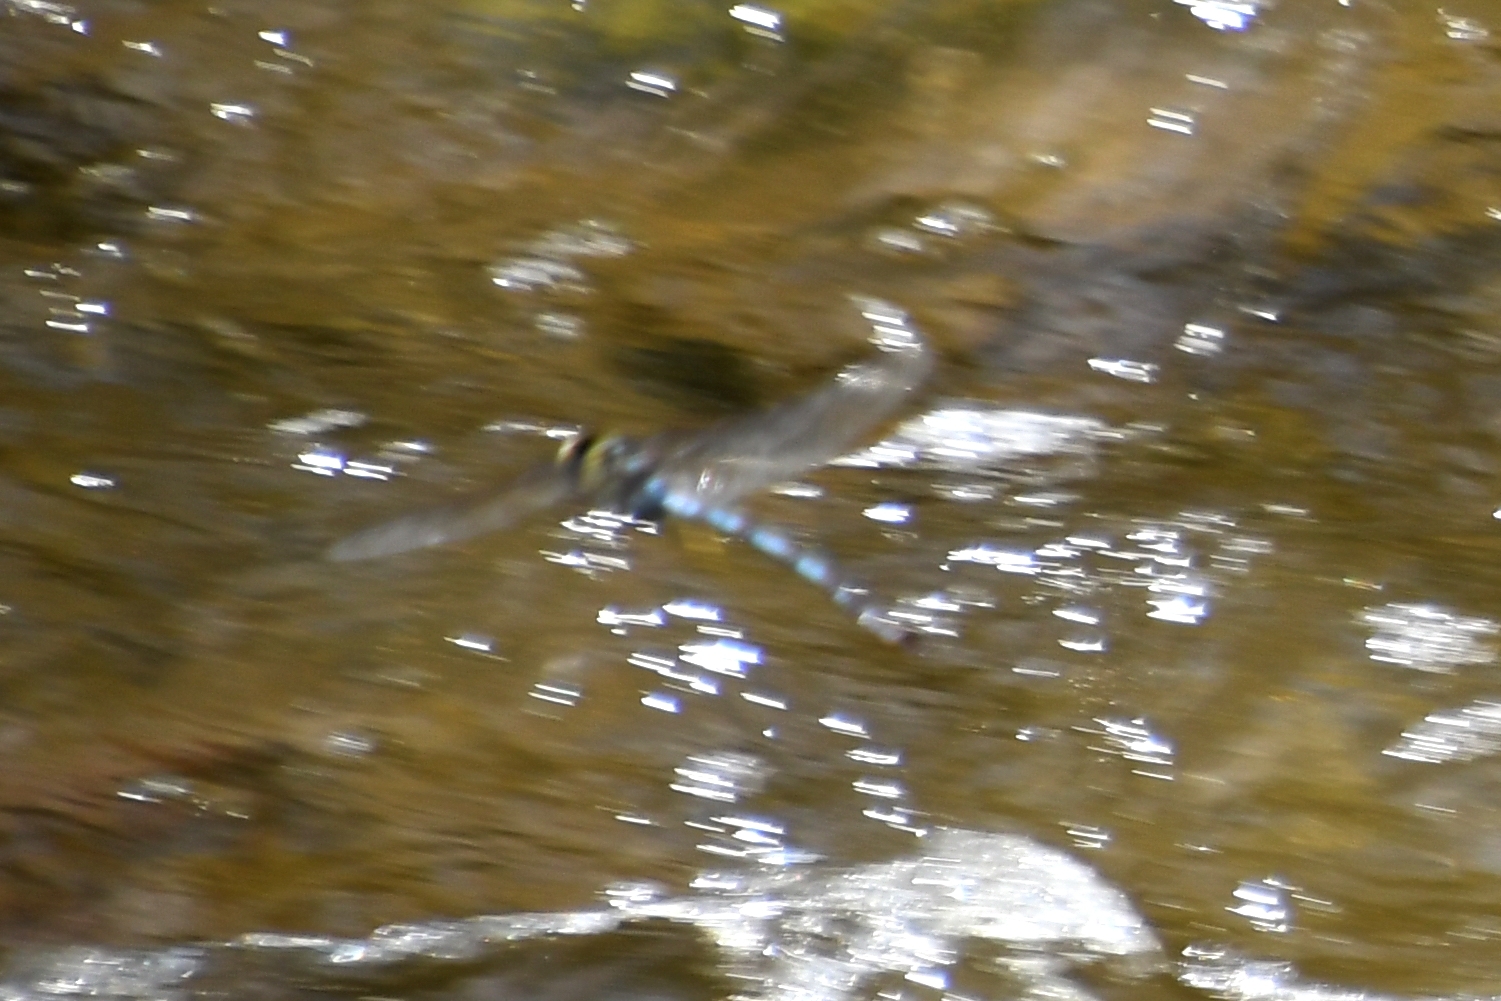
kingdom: Animalia
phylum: Arthropoda
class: Insecta
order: Odonata
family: Aeshnidae
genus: Anax
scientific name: Anax walsinghami
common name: Giant darner
